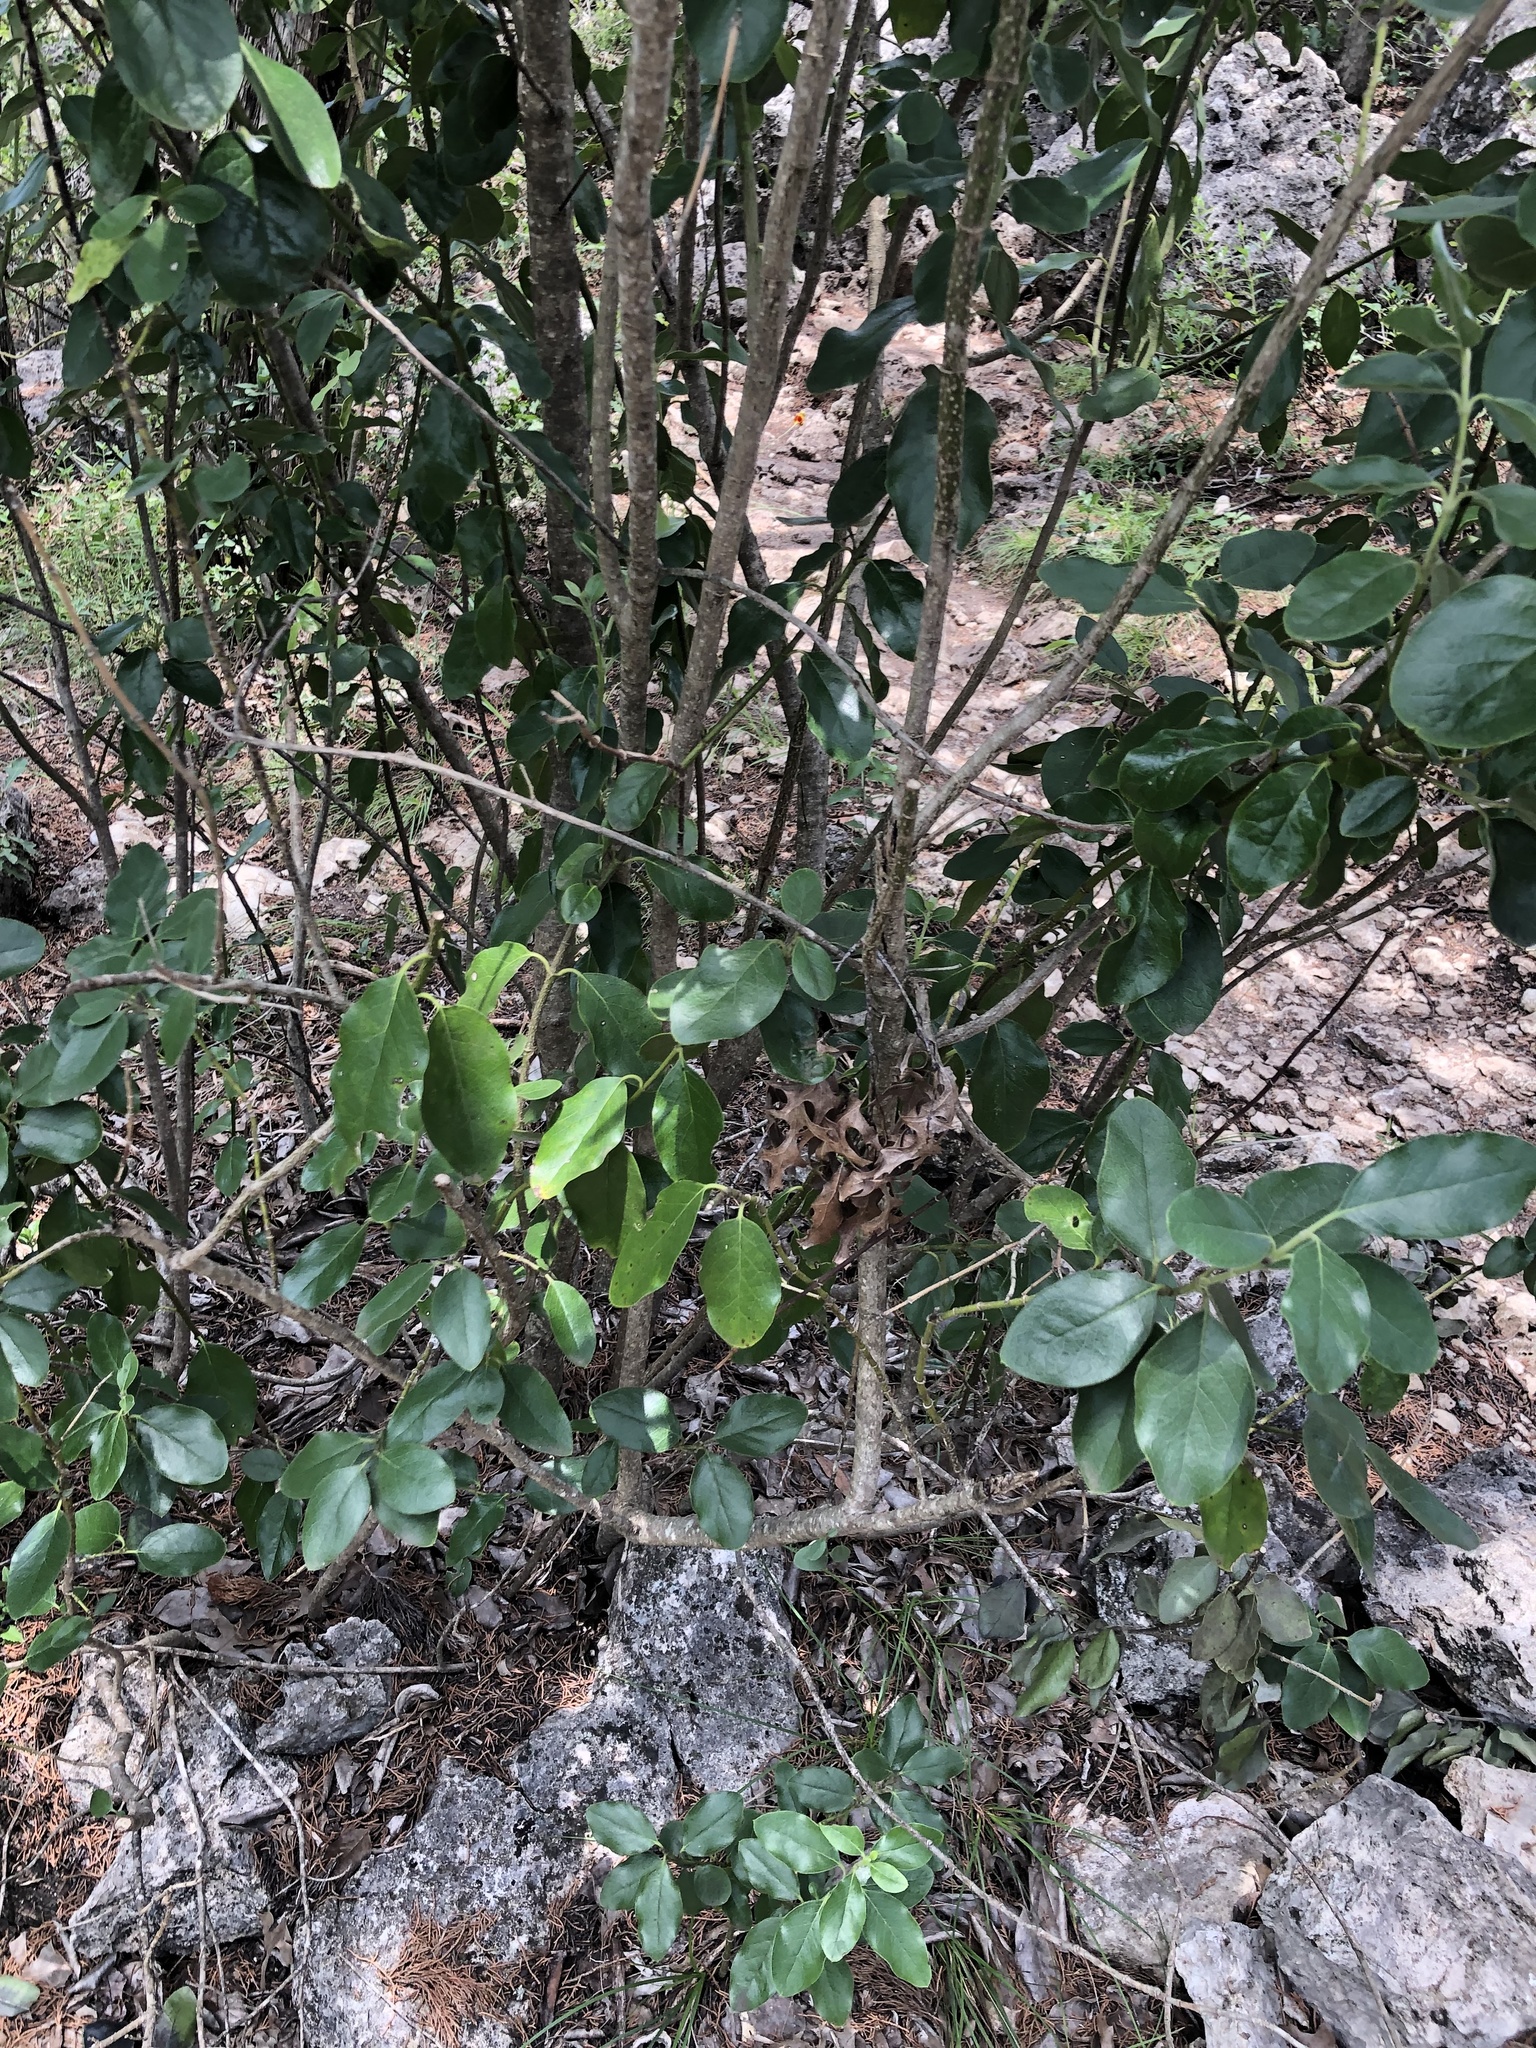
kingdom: Plantae
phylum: Tracheophyta
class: Magnoliopsida
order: Garryales
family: Garryaceae
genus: Garrya
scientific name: Garrya lindheimeri
